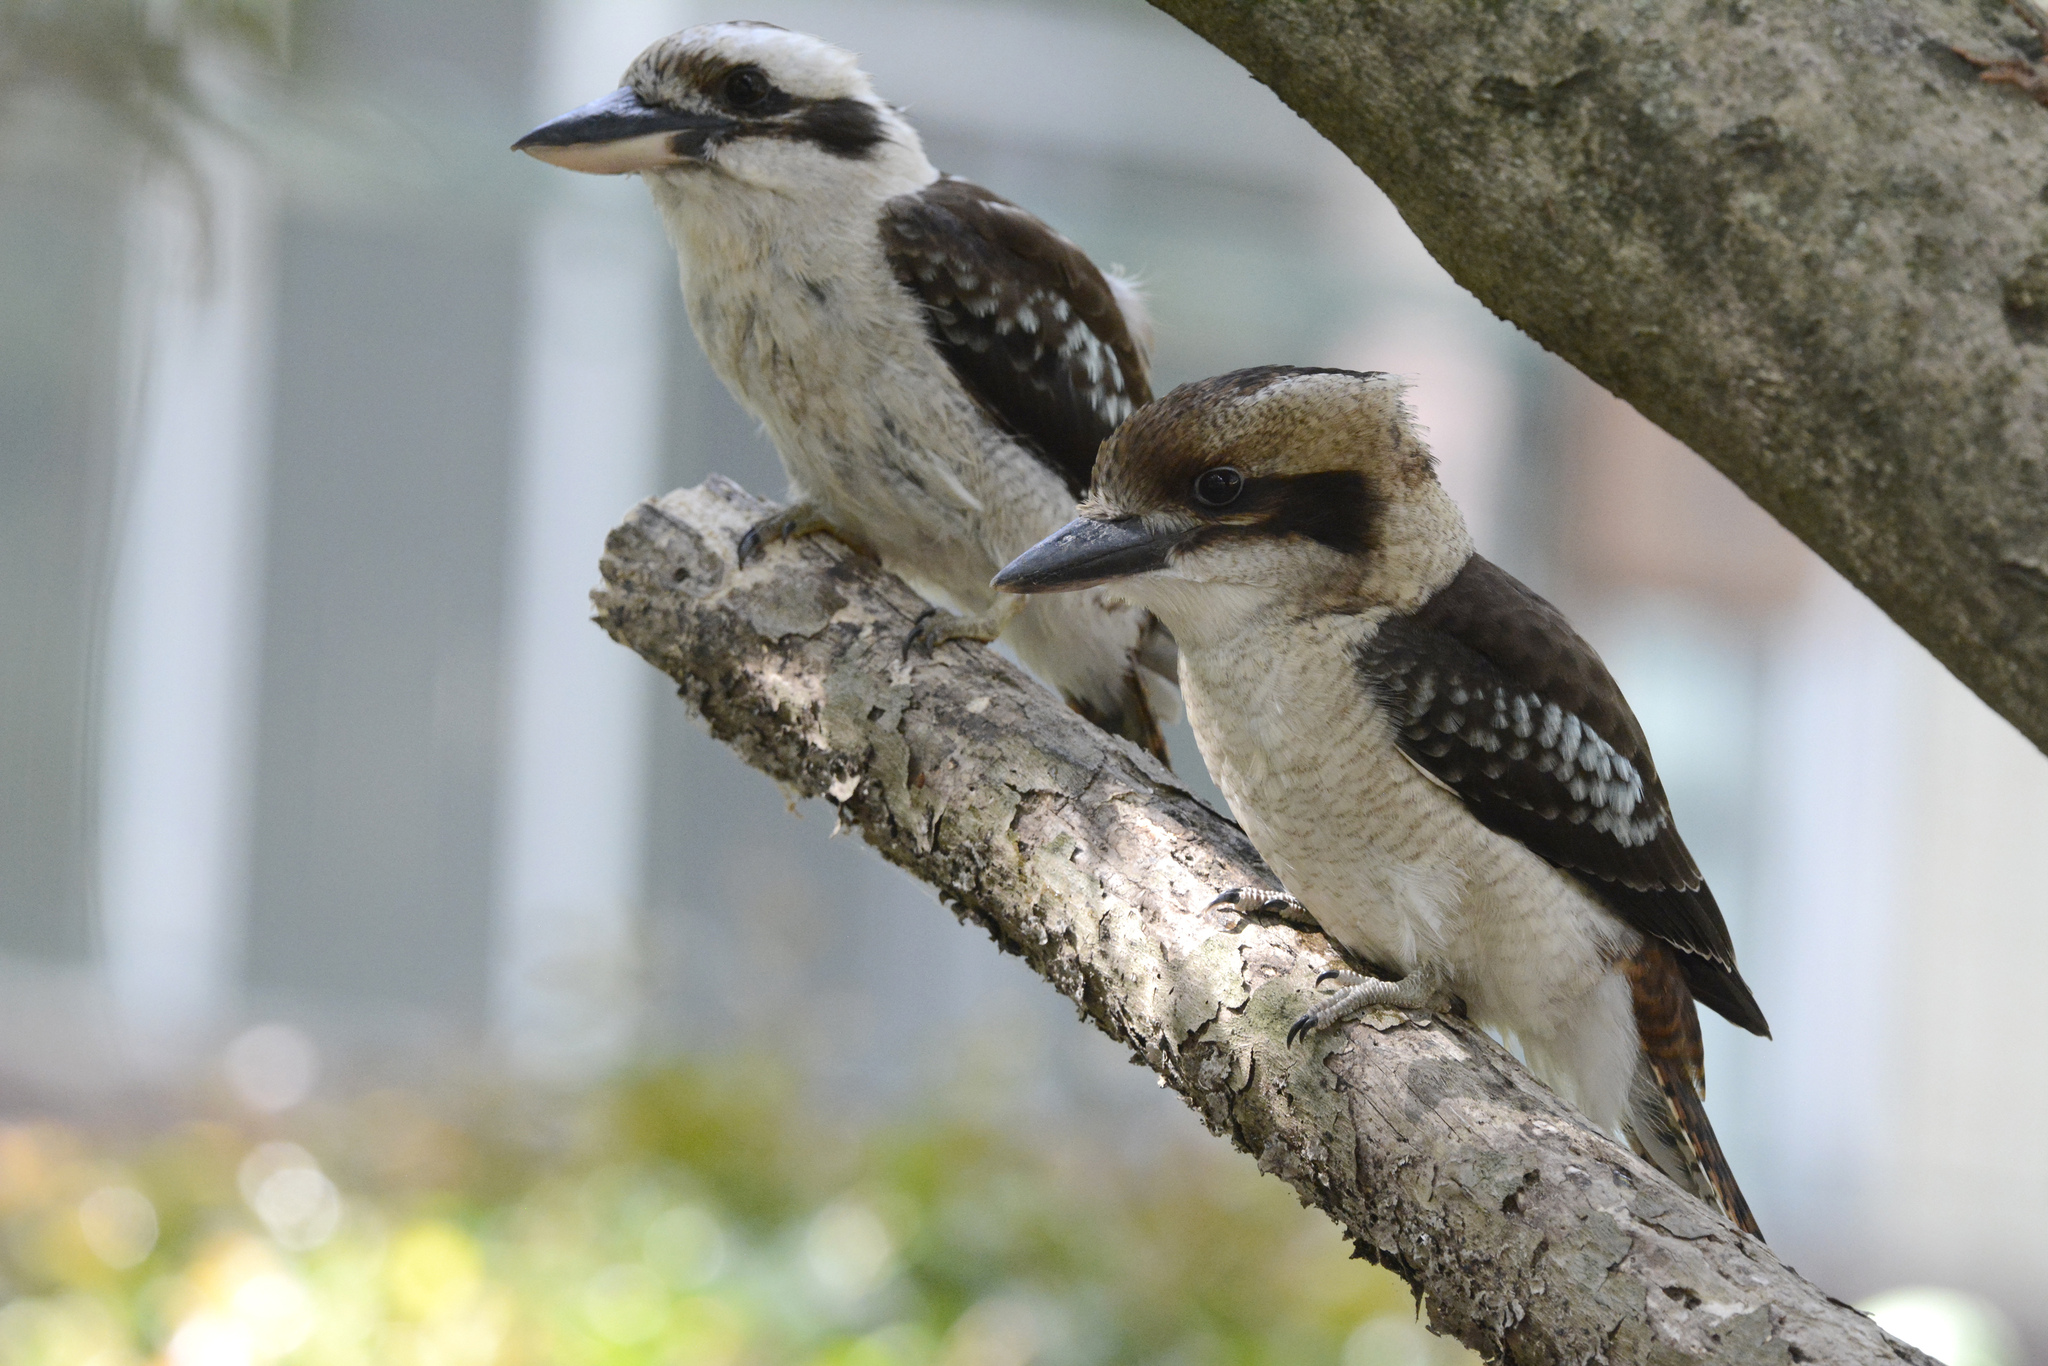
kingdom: Animalia
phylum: Chordata
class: Aves
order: Coraciiformes
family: Alcedinidae
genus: Dacelo
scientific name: Dacelo novaeguineae
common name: Laughing kookaburra
